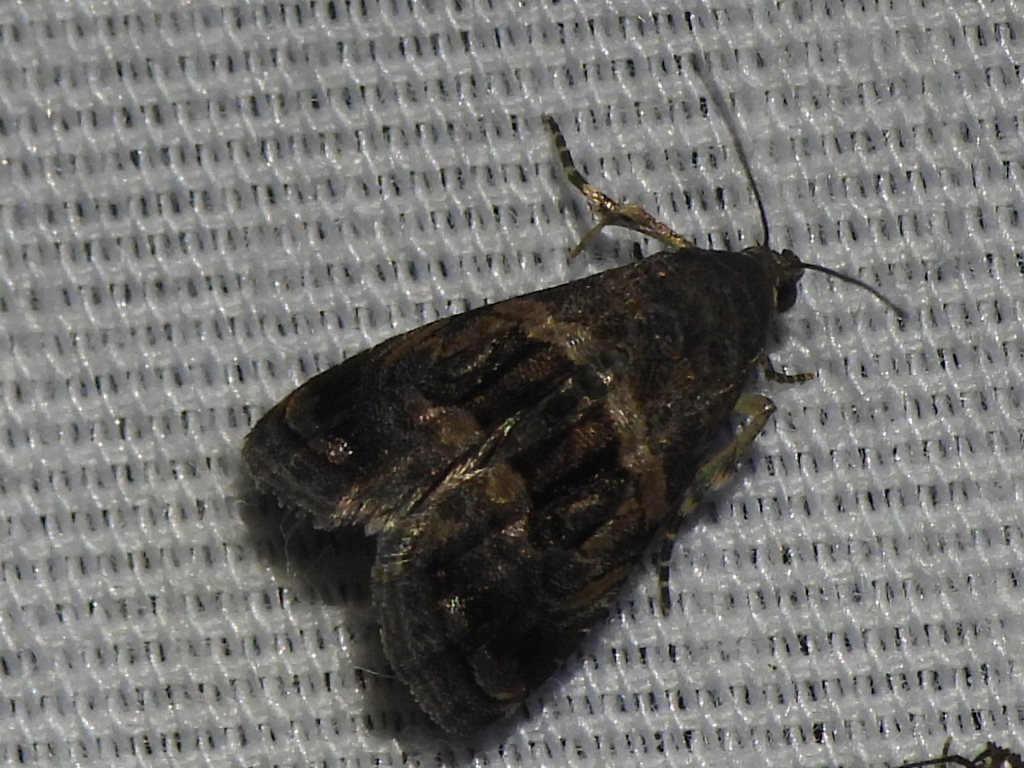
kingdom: Animalia
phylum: Arthropoda
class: Insecta
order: Lepidoptera
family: Noctuidae
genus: Tripudia
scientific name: Tripudia quadrifera
